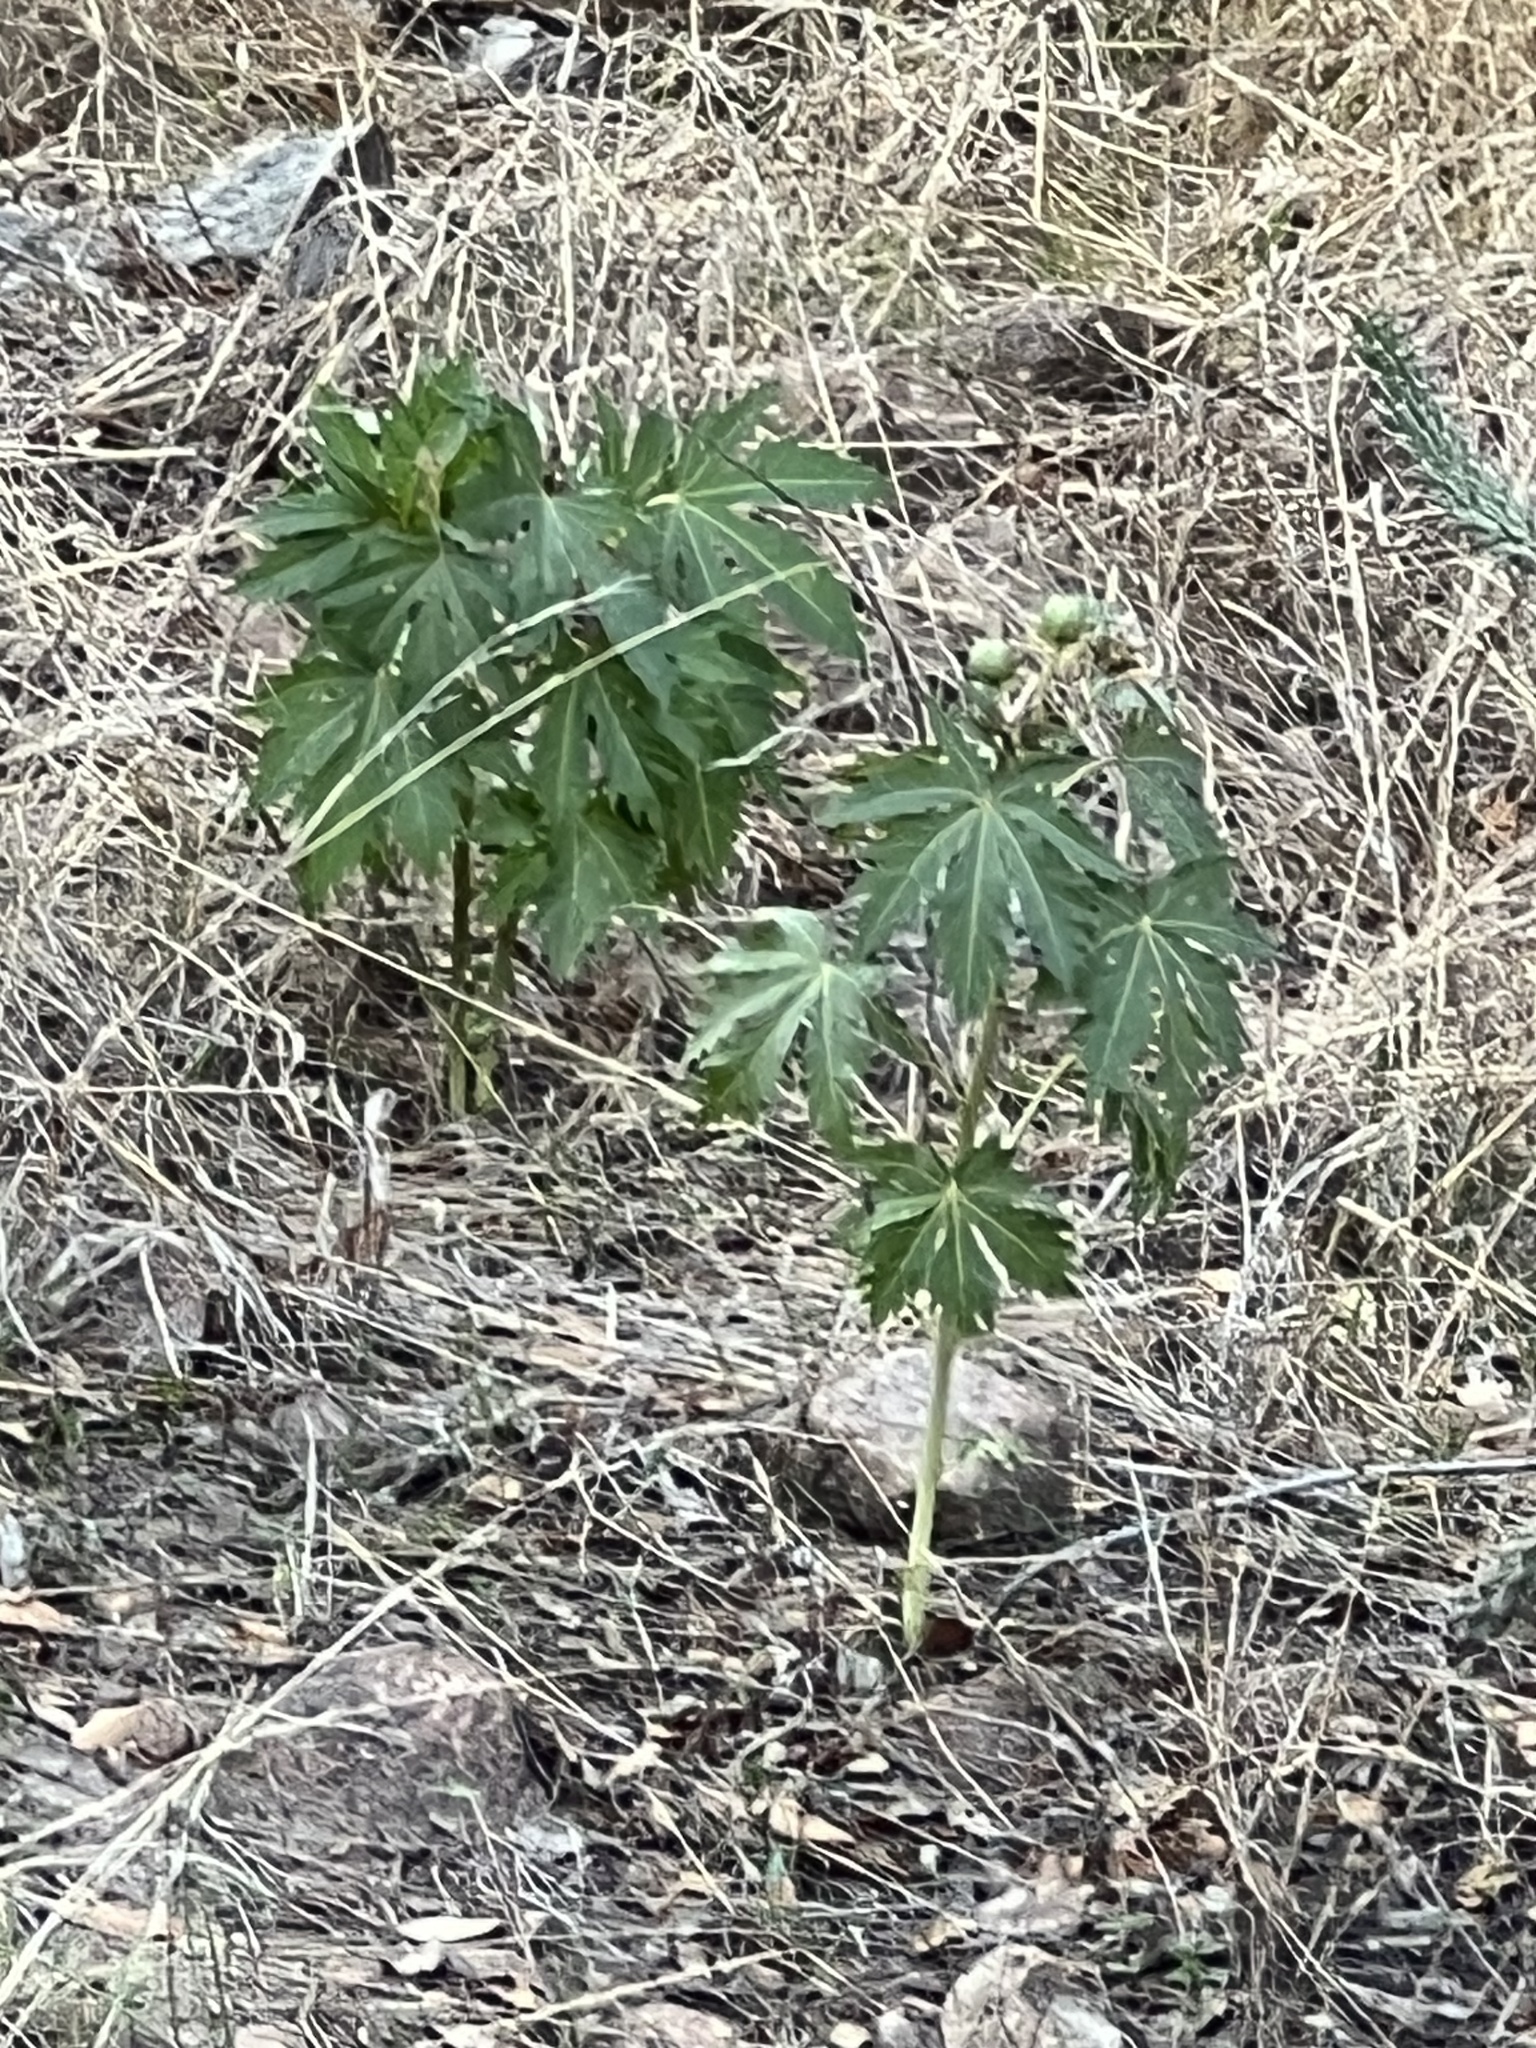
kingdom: Plantae
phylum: Tracheophyta
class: Magnoliopsida
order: Malpighiales
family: Euphorbiaceae
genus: Jatropha
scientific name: Jatropha macrorhiza
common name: Ragged nettlespurge
